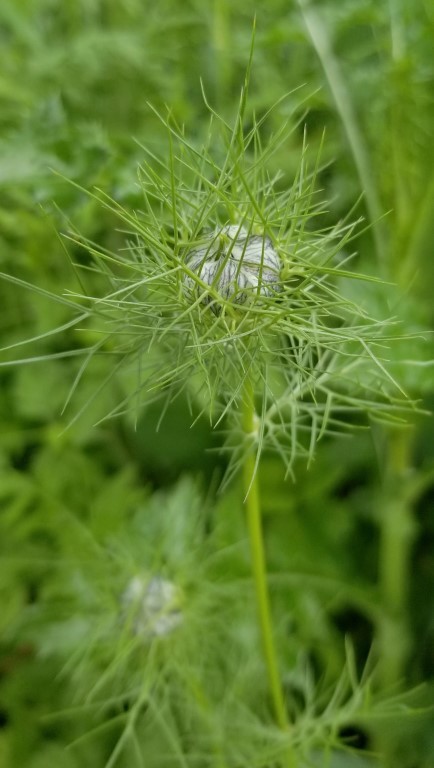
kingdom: Plantae
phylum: Tracheophyta
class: Magnoliopsida
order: Ranunculales
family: Ranunculaceae
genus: Nigella
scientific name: Nigella damascena
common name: Love-in-a-mist
